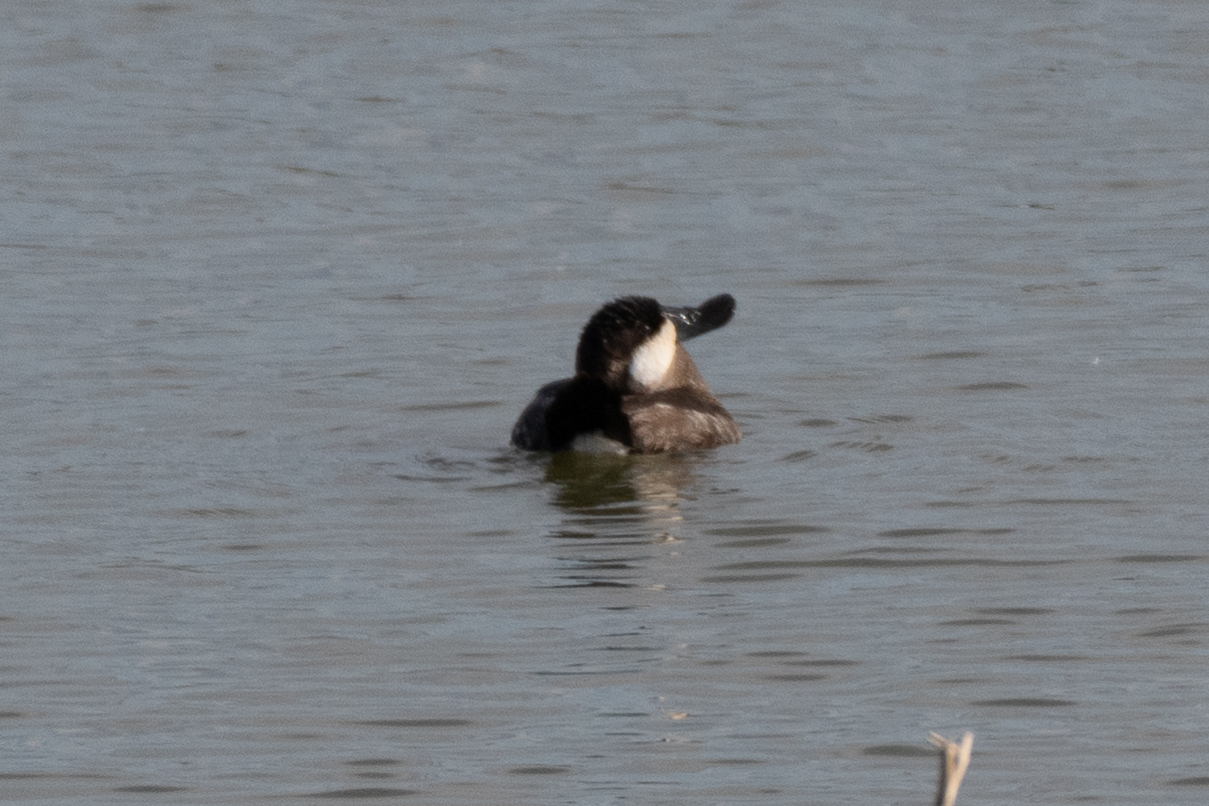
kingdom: Animalia
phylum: Chordata
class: Aves
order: Anseriformes
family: Anatidae
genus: Oxyura
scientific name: Oxyura jamaicensis
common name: Ruddy duck
